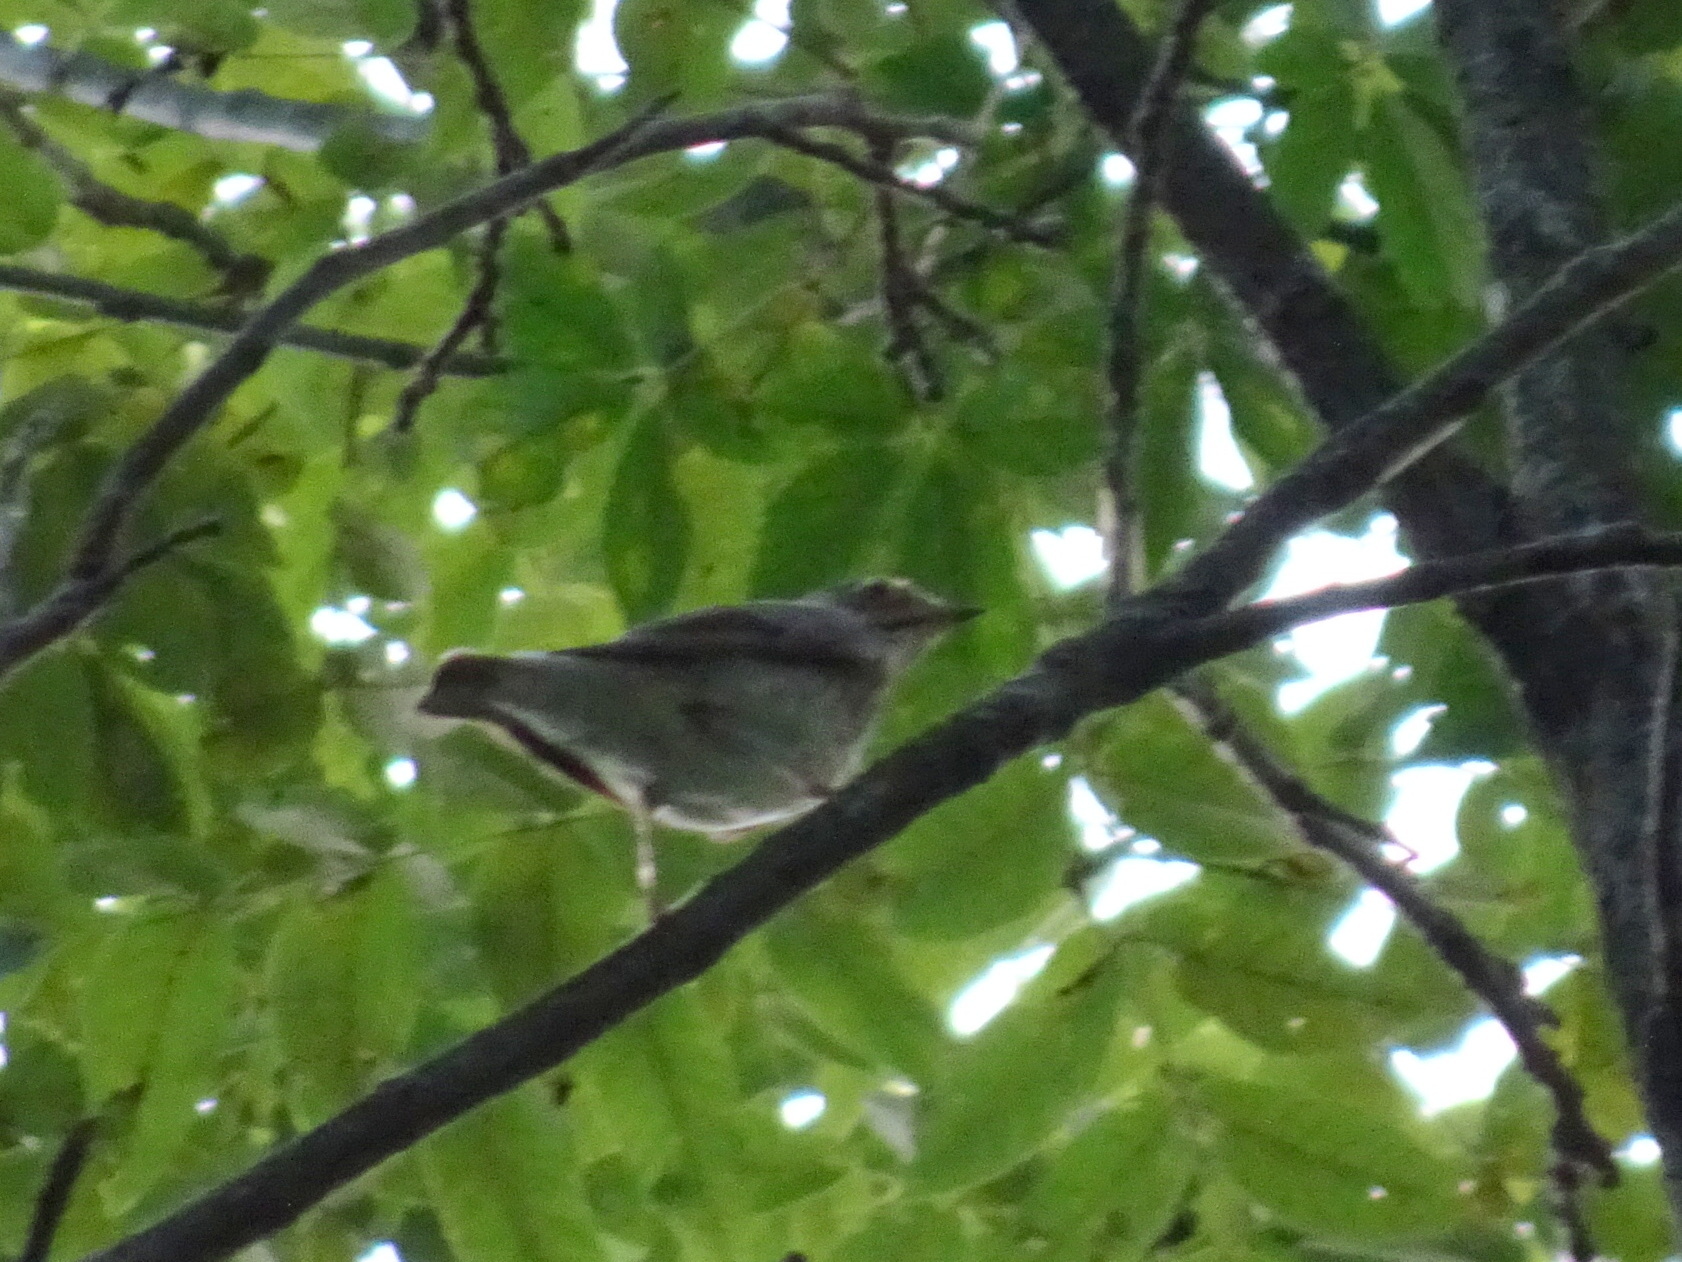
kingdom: Animalia
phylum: Chordata
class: Aves
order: Passeriformes
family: Turdidae
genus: Catharus
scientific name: Catharus
